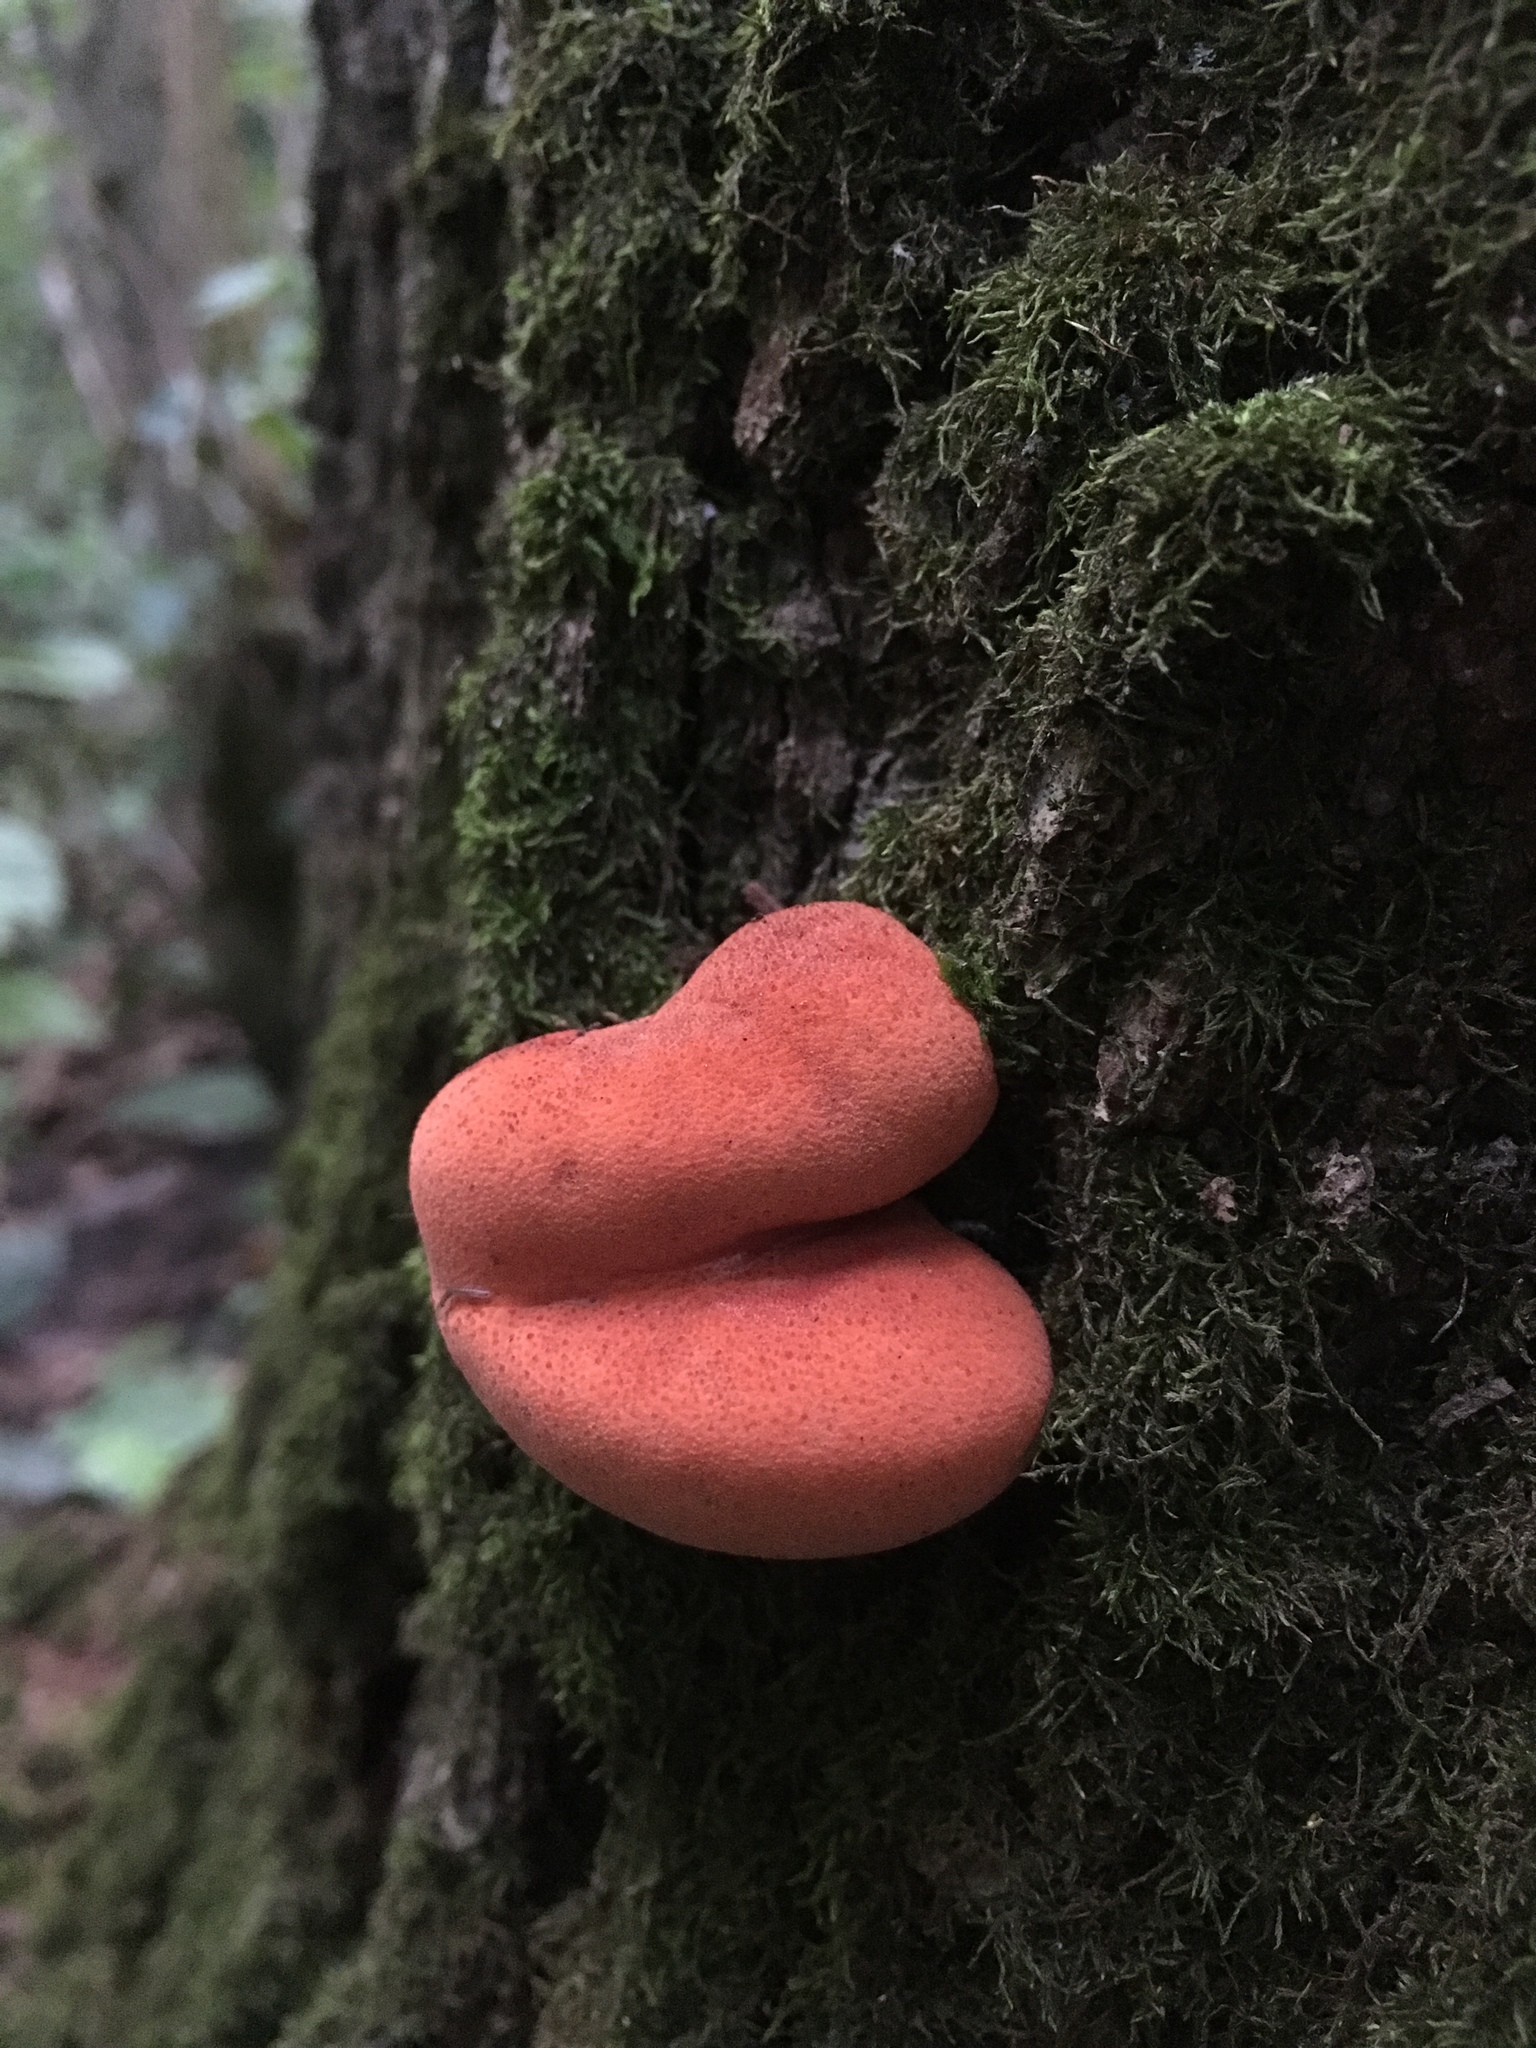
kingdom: Fungi
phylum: Basidiomycota
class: Agaricomycetes
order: Agaricales
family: Fistulinaceae
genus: Fistulina
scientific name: Fistulina hepatica
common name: Beef-steak fungus
